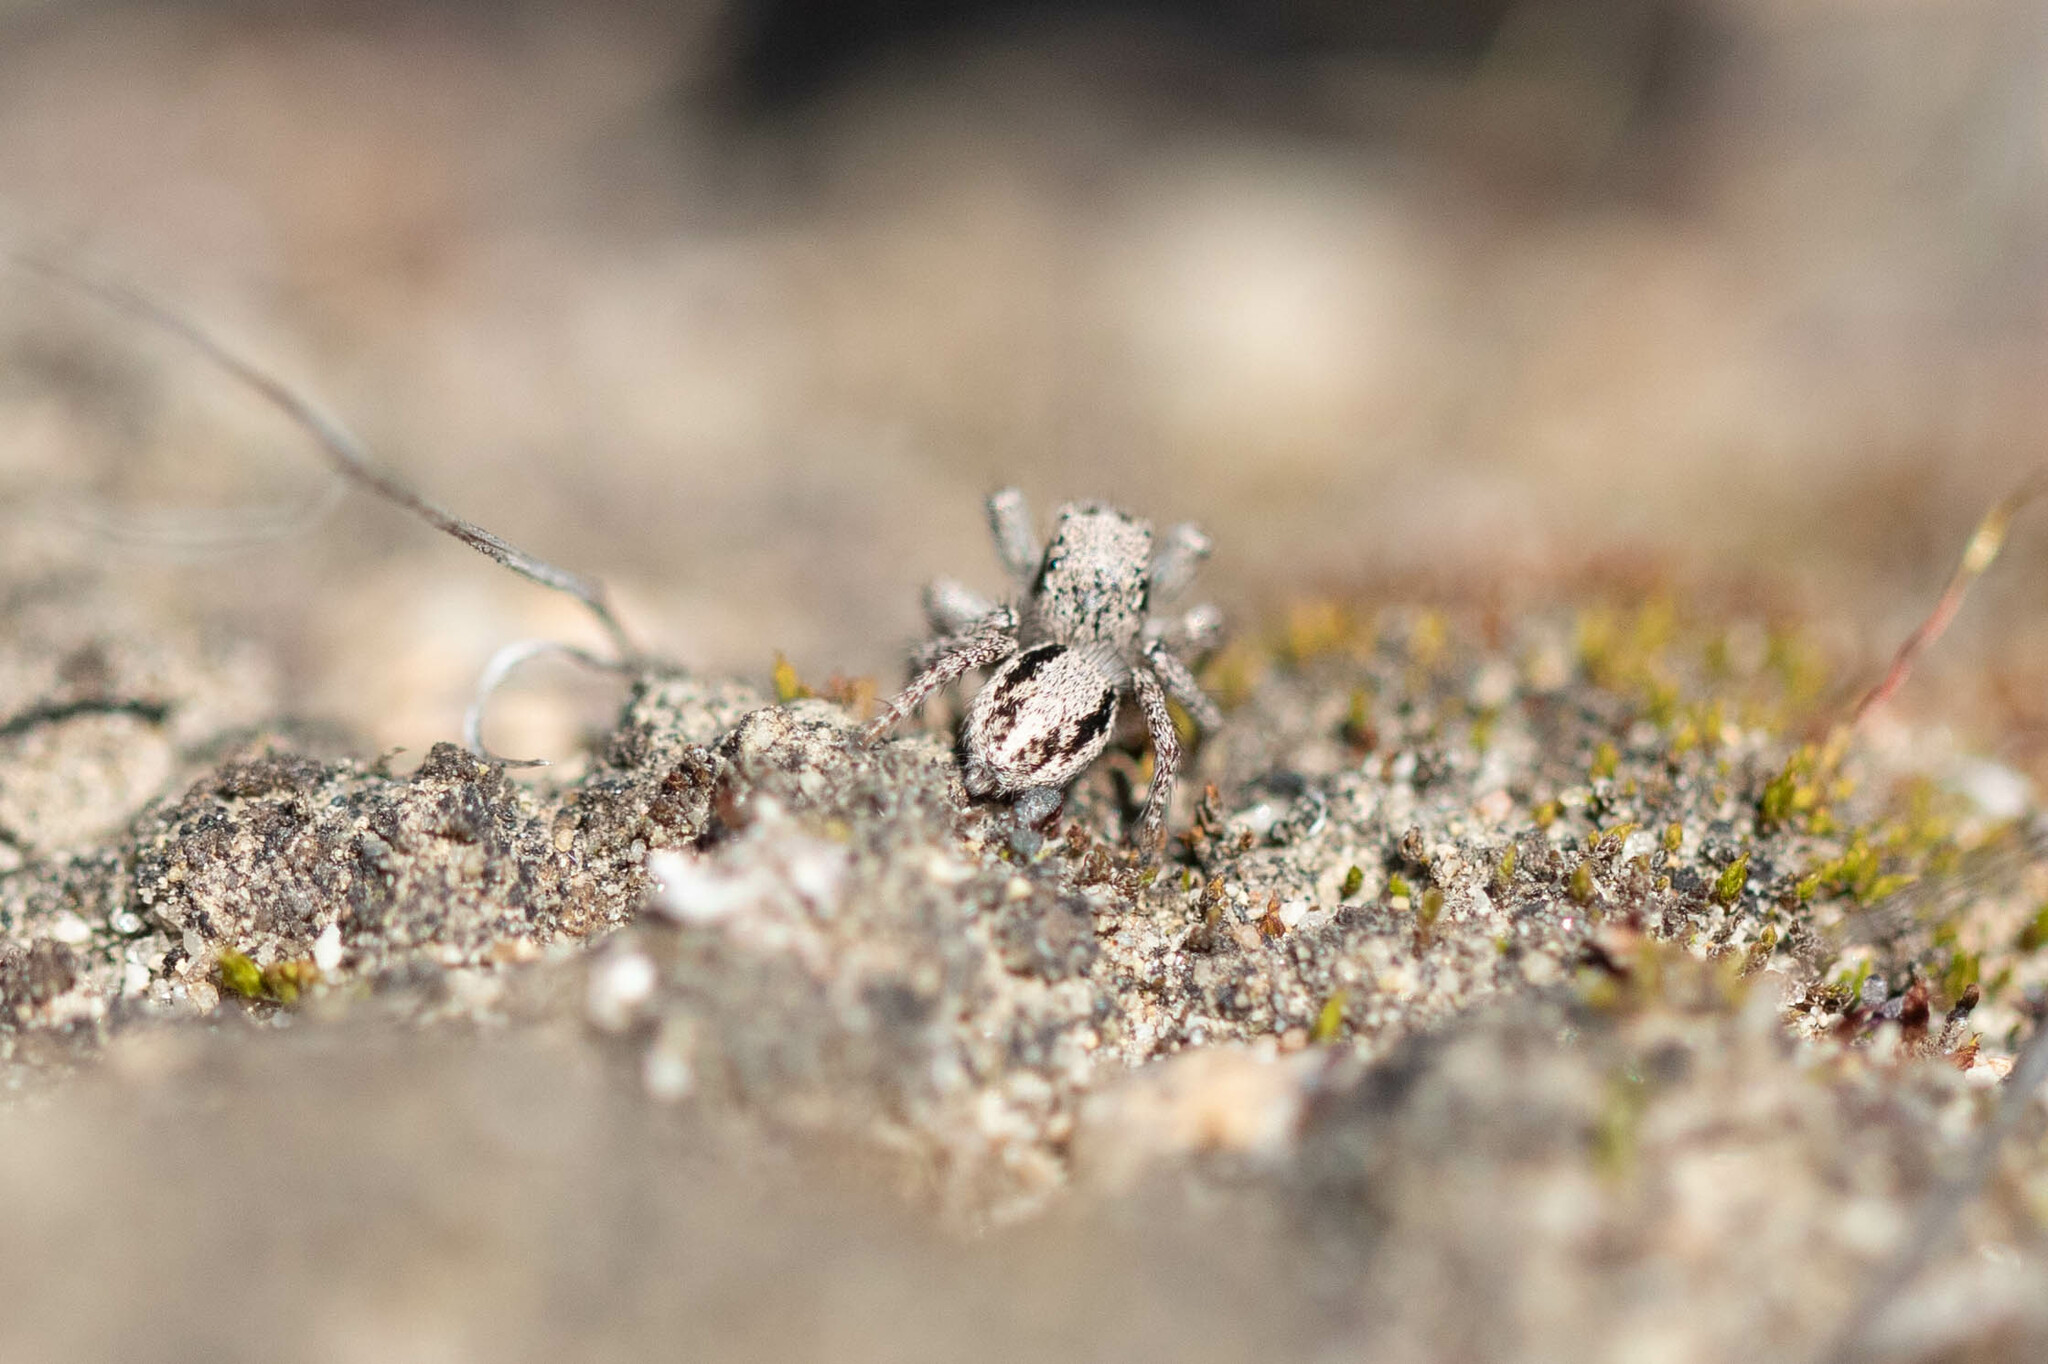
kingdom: Animalia
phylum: Arthropoda
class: Arachnida
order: Araneae
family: Salticidae
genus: Habronattus
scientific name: Habronattus sansoni
